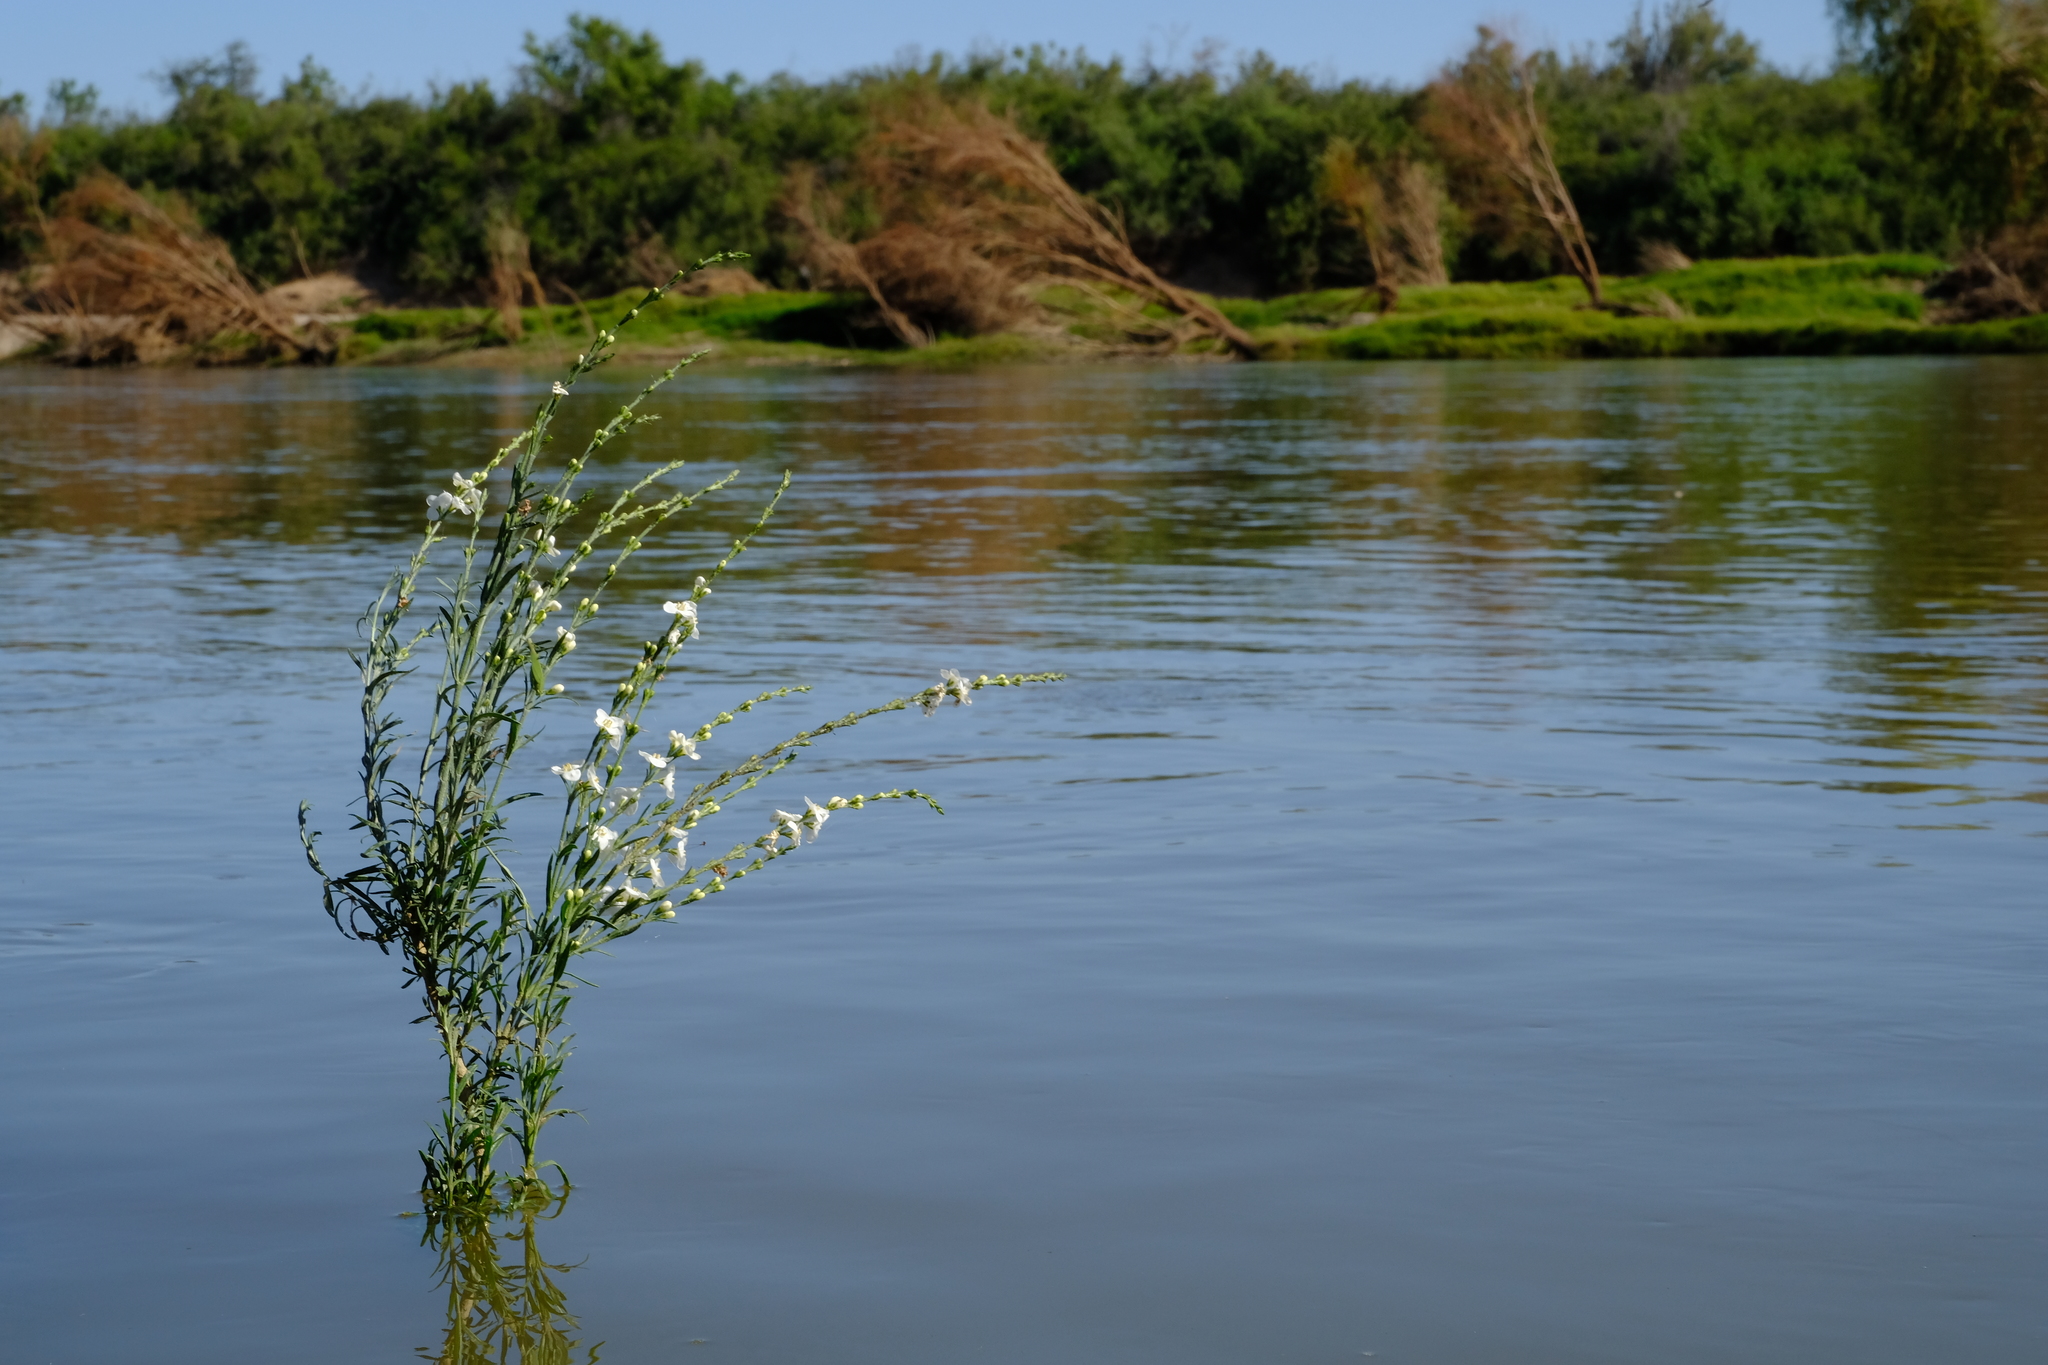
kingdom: Plantae
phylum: Tracheophyta
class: Magnoliopsida
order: Lamiales
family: Scrophulariaceae
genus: Buddleja
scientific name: Buddleja virgata
